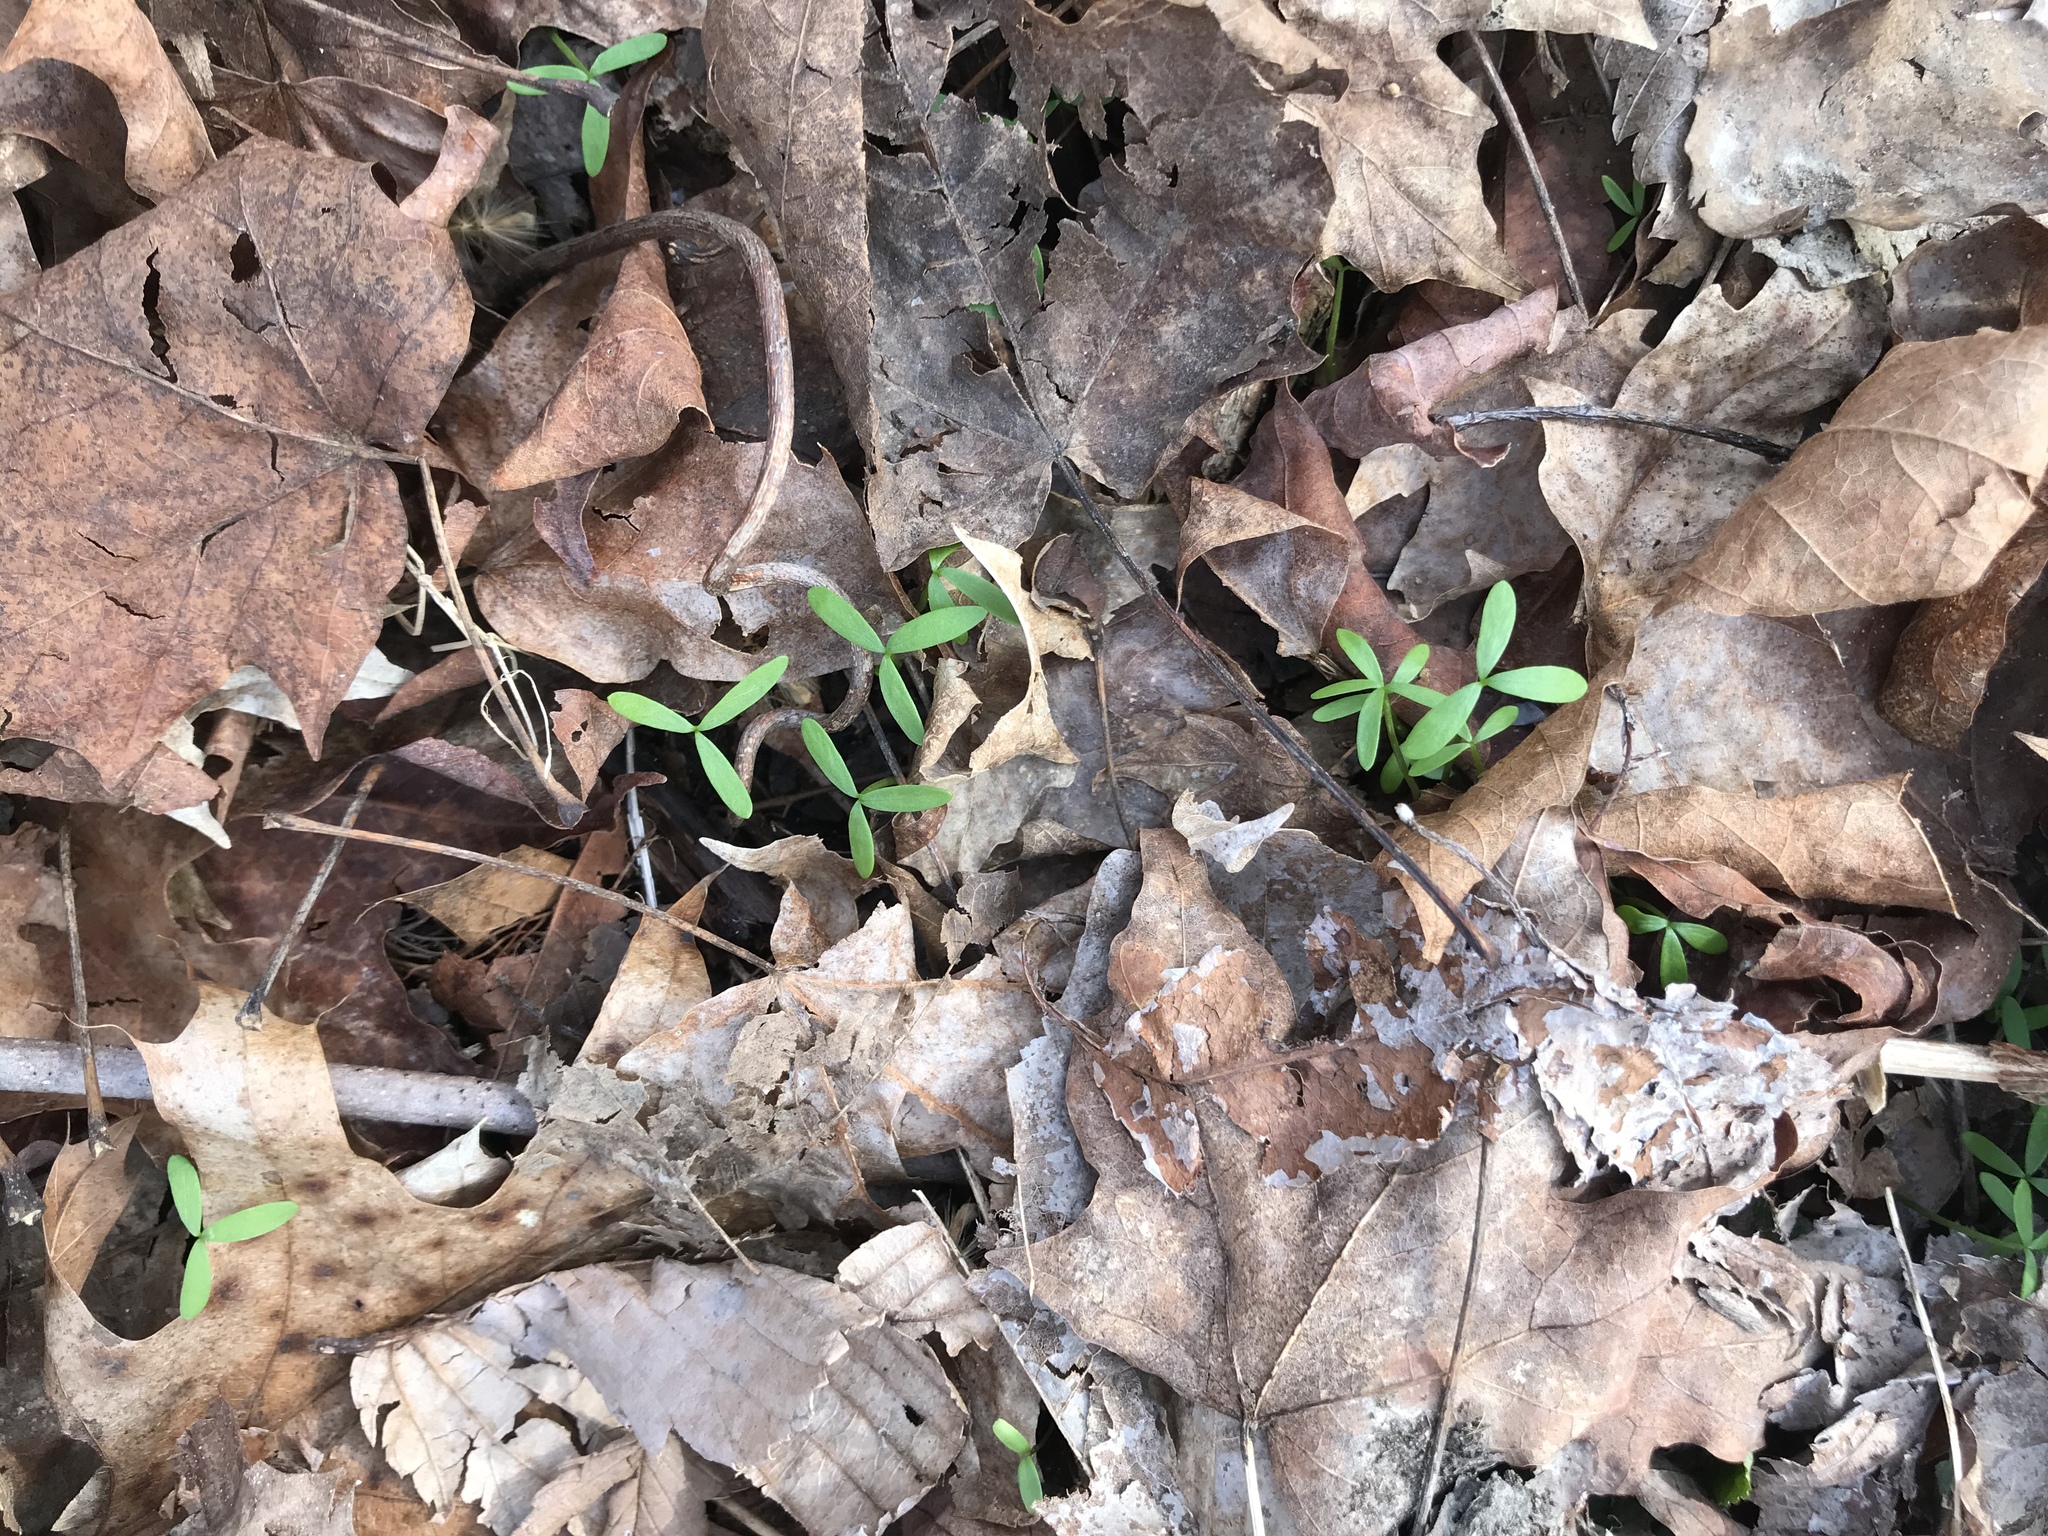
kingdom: Plantae
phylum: Tracheophyta
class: Magnoliopsida
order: Brassicales
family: Limnanthaceae
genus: Floerkea
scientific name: Floerkea proserpinacoides
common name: False mermaid
